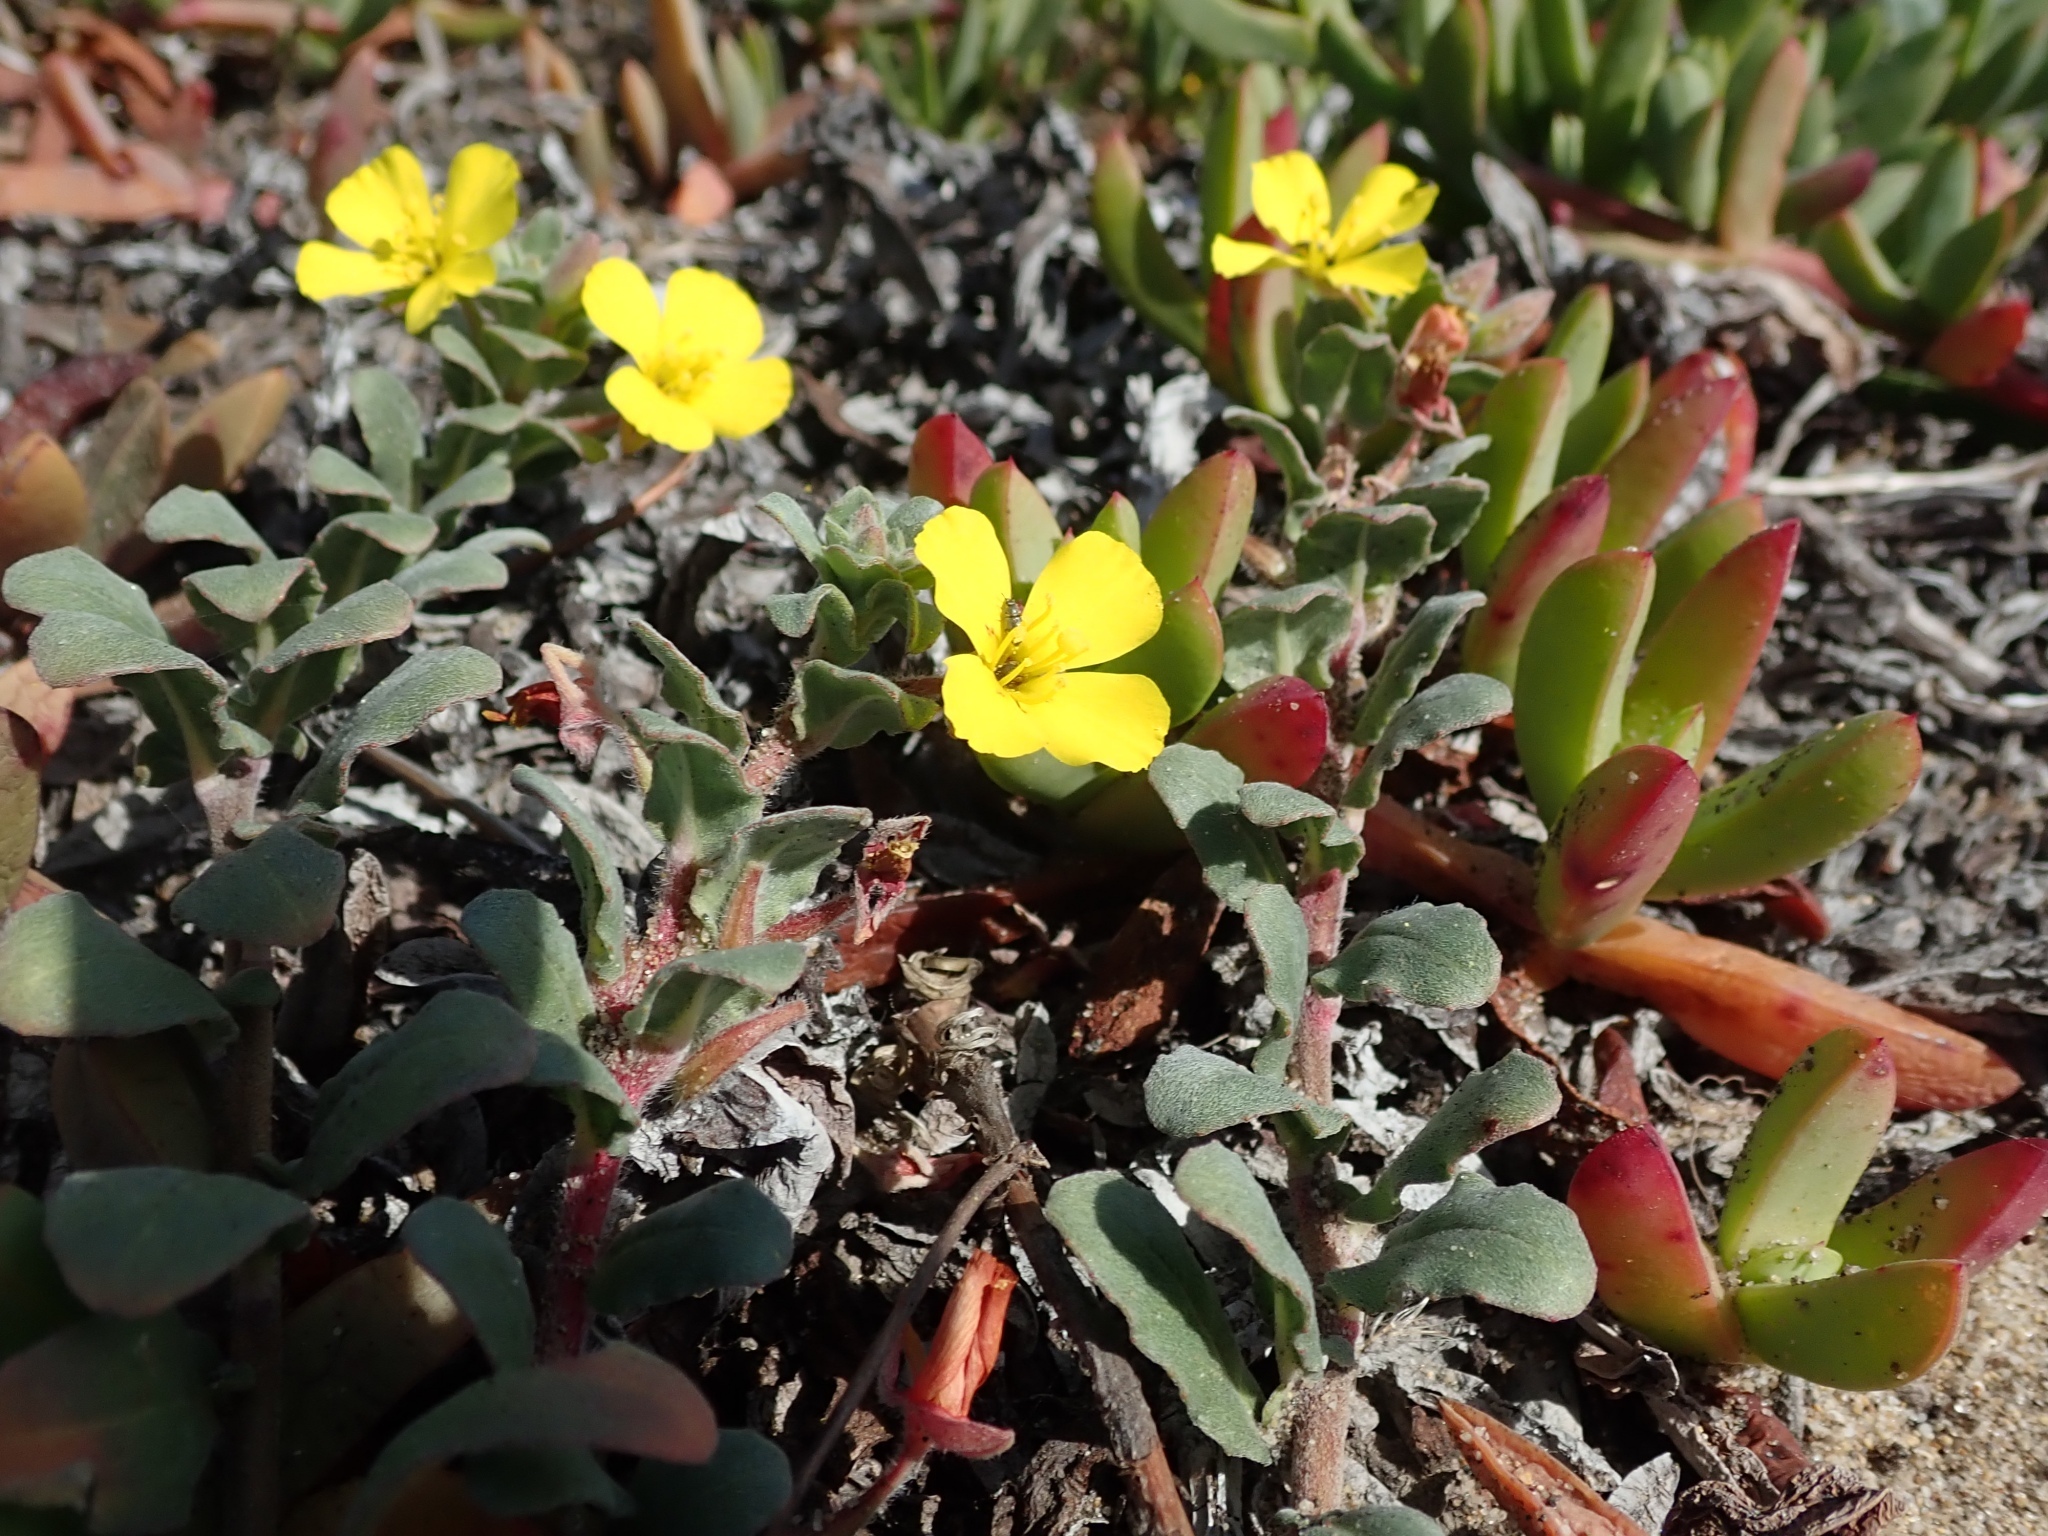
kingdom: Plantae
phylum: Tracheophyta
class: Magnoliopsida
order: Myrtales
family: Onagraceae
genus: Camissoniopsis
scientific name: Camissoniopsis cheiranthifolia
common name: Beach suncup
